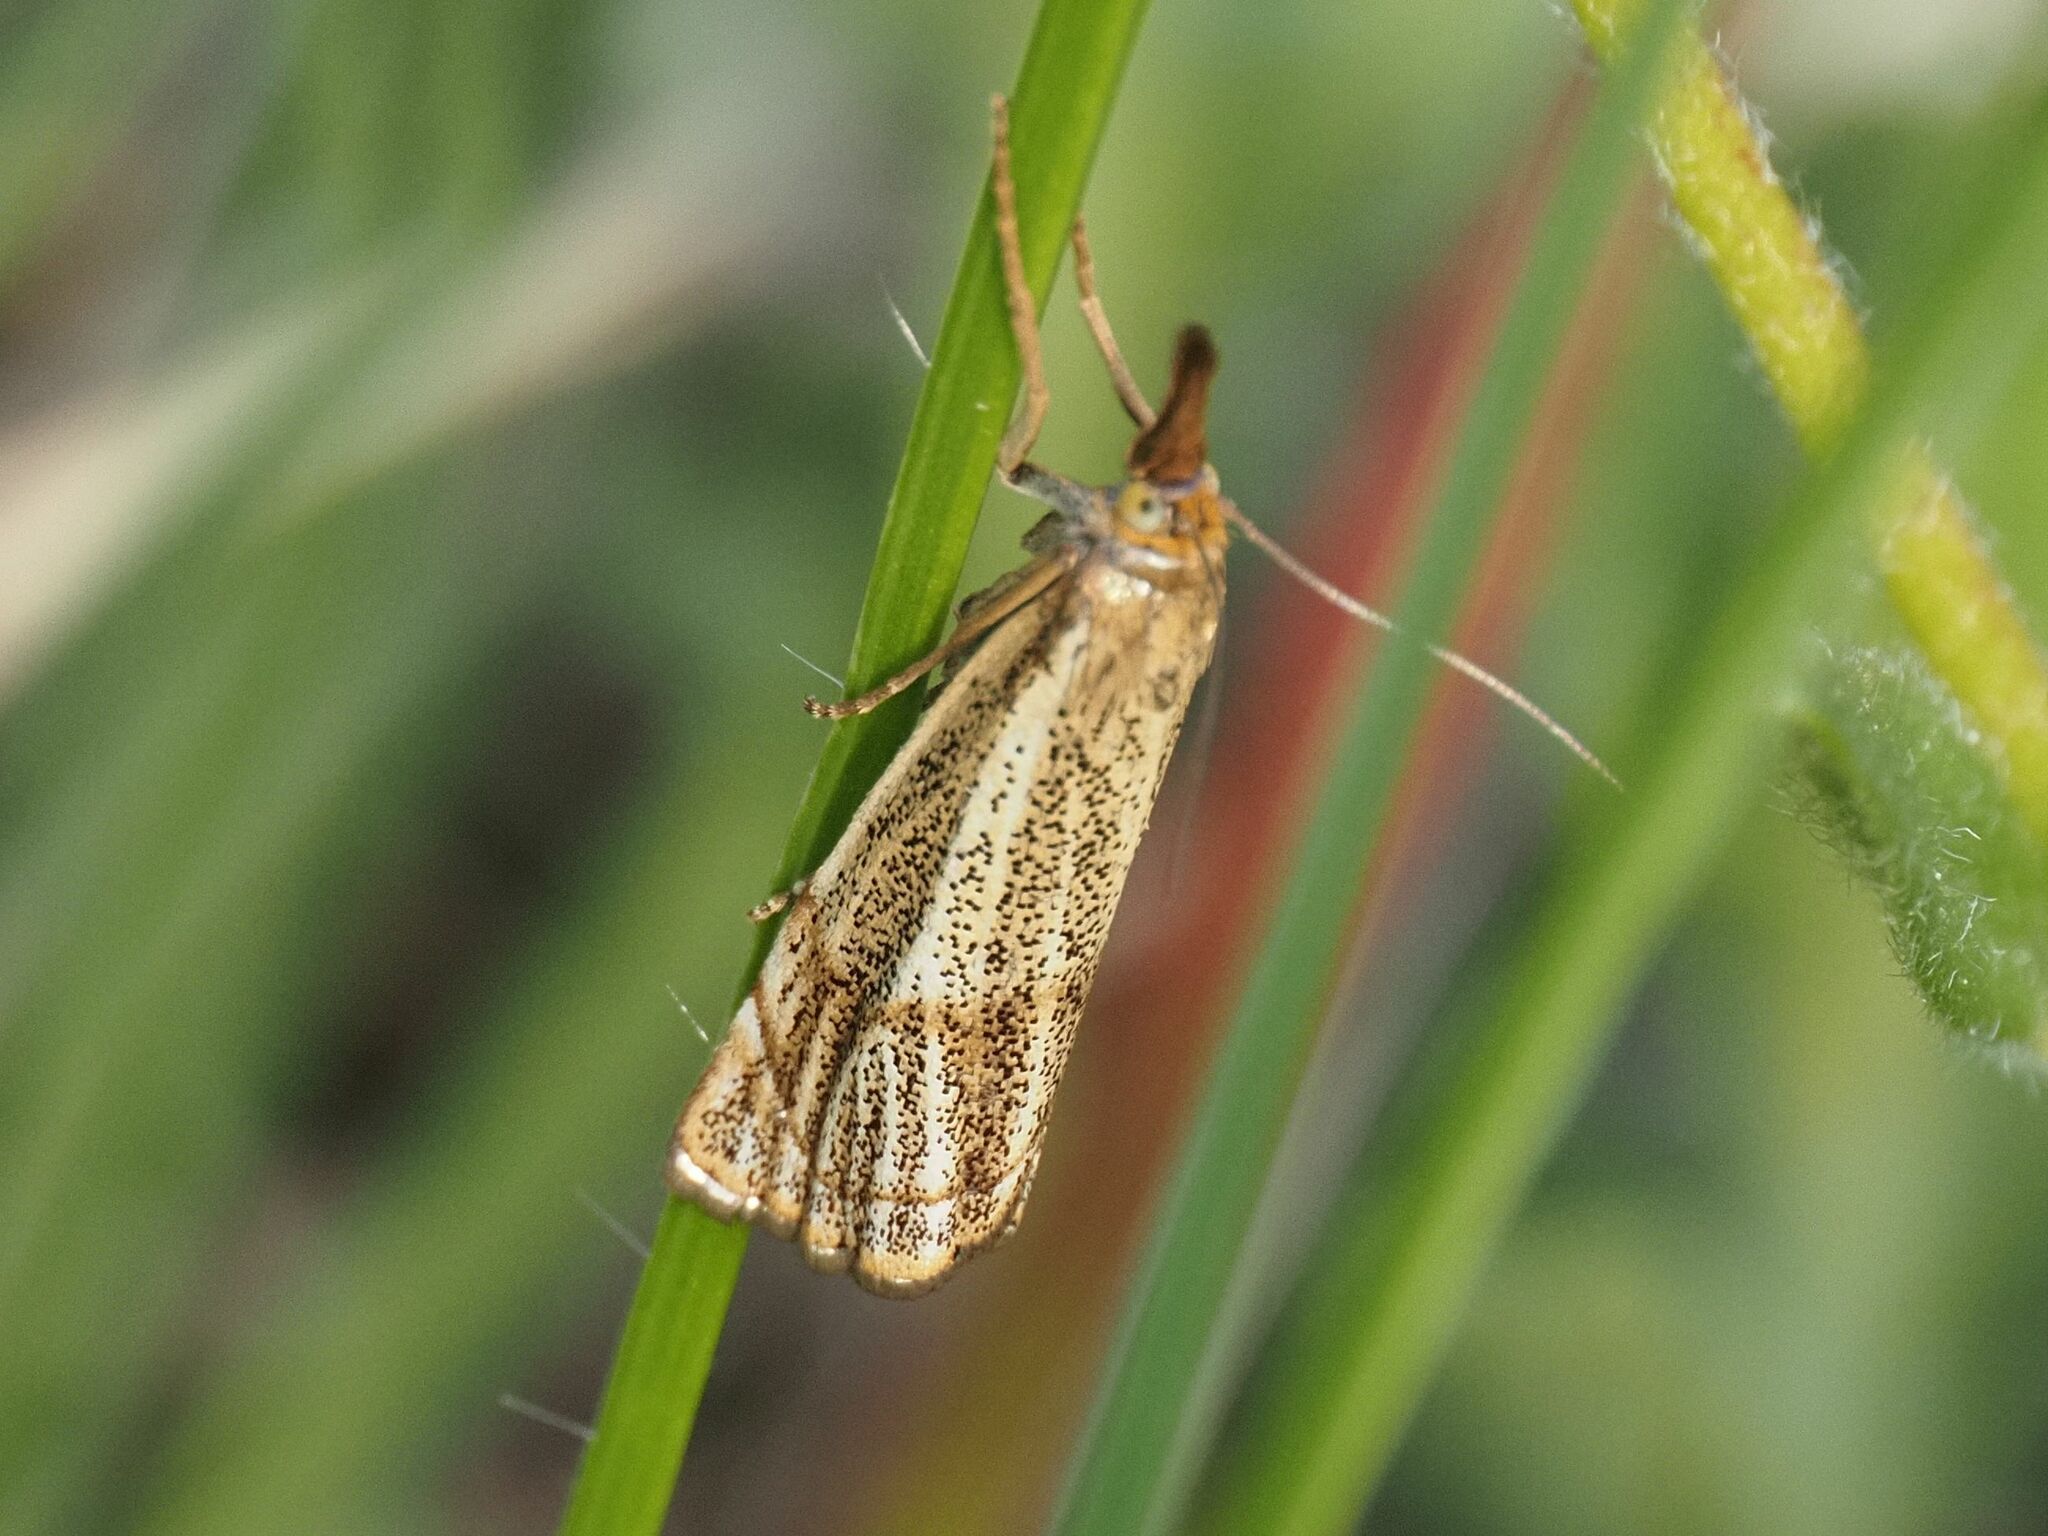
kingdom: Animalia
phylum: Arthropoda
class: Insecta
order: Lepidoptera
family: Crambidae
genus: Thisanotia
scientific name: Thisanotia chrysonuchella
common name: Powdered grass-veneer
